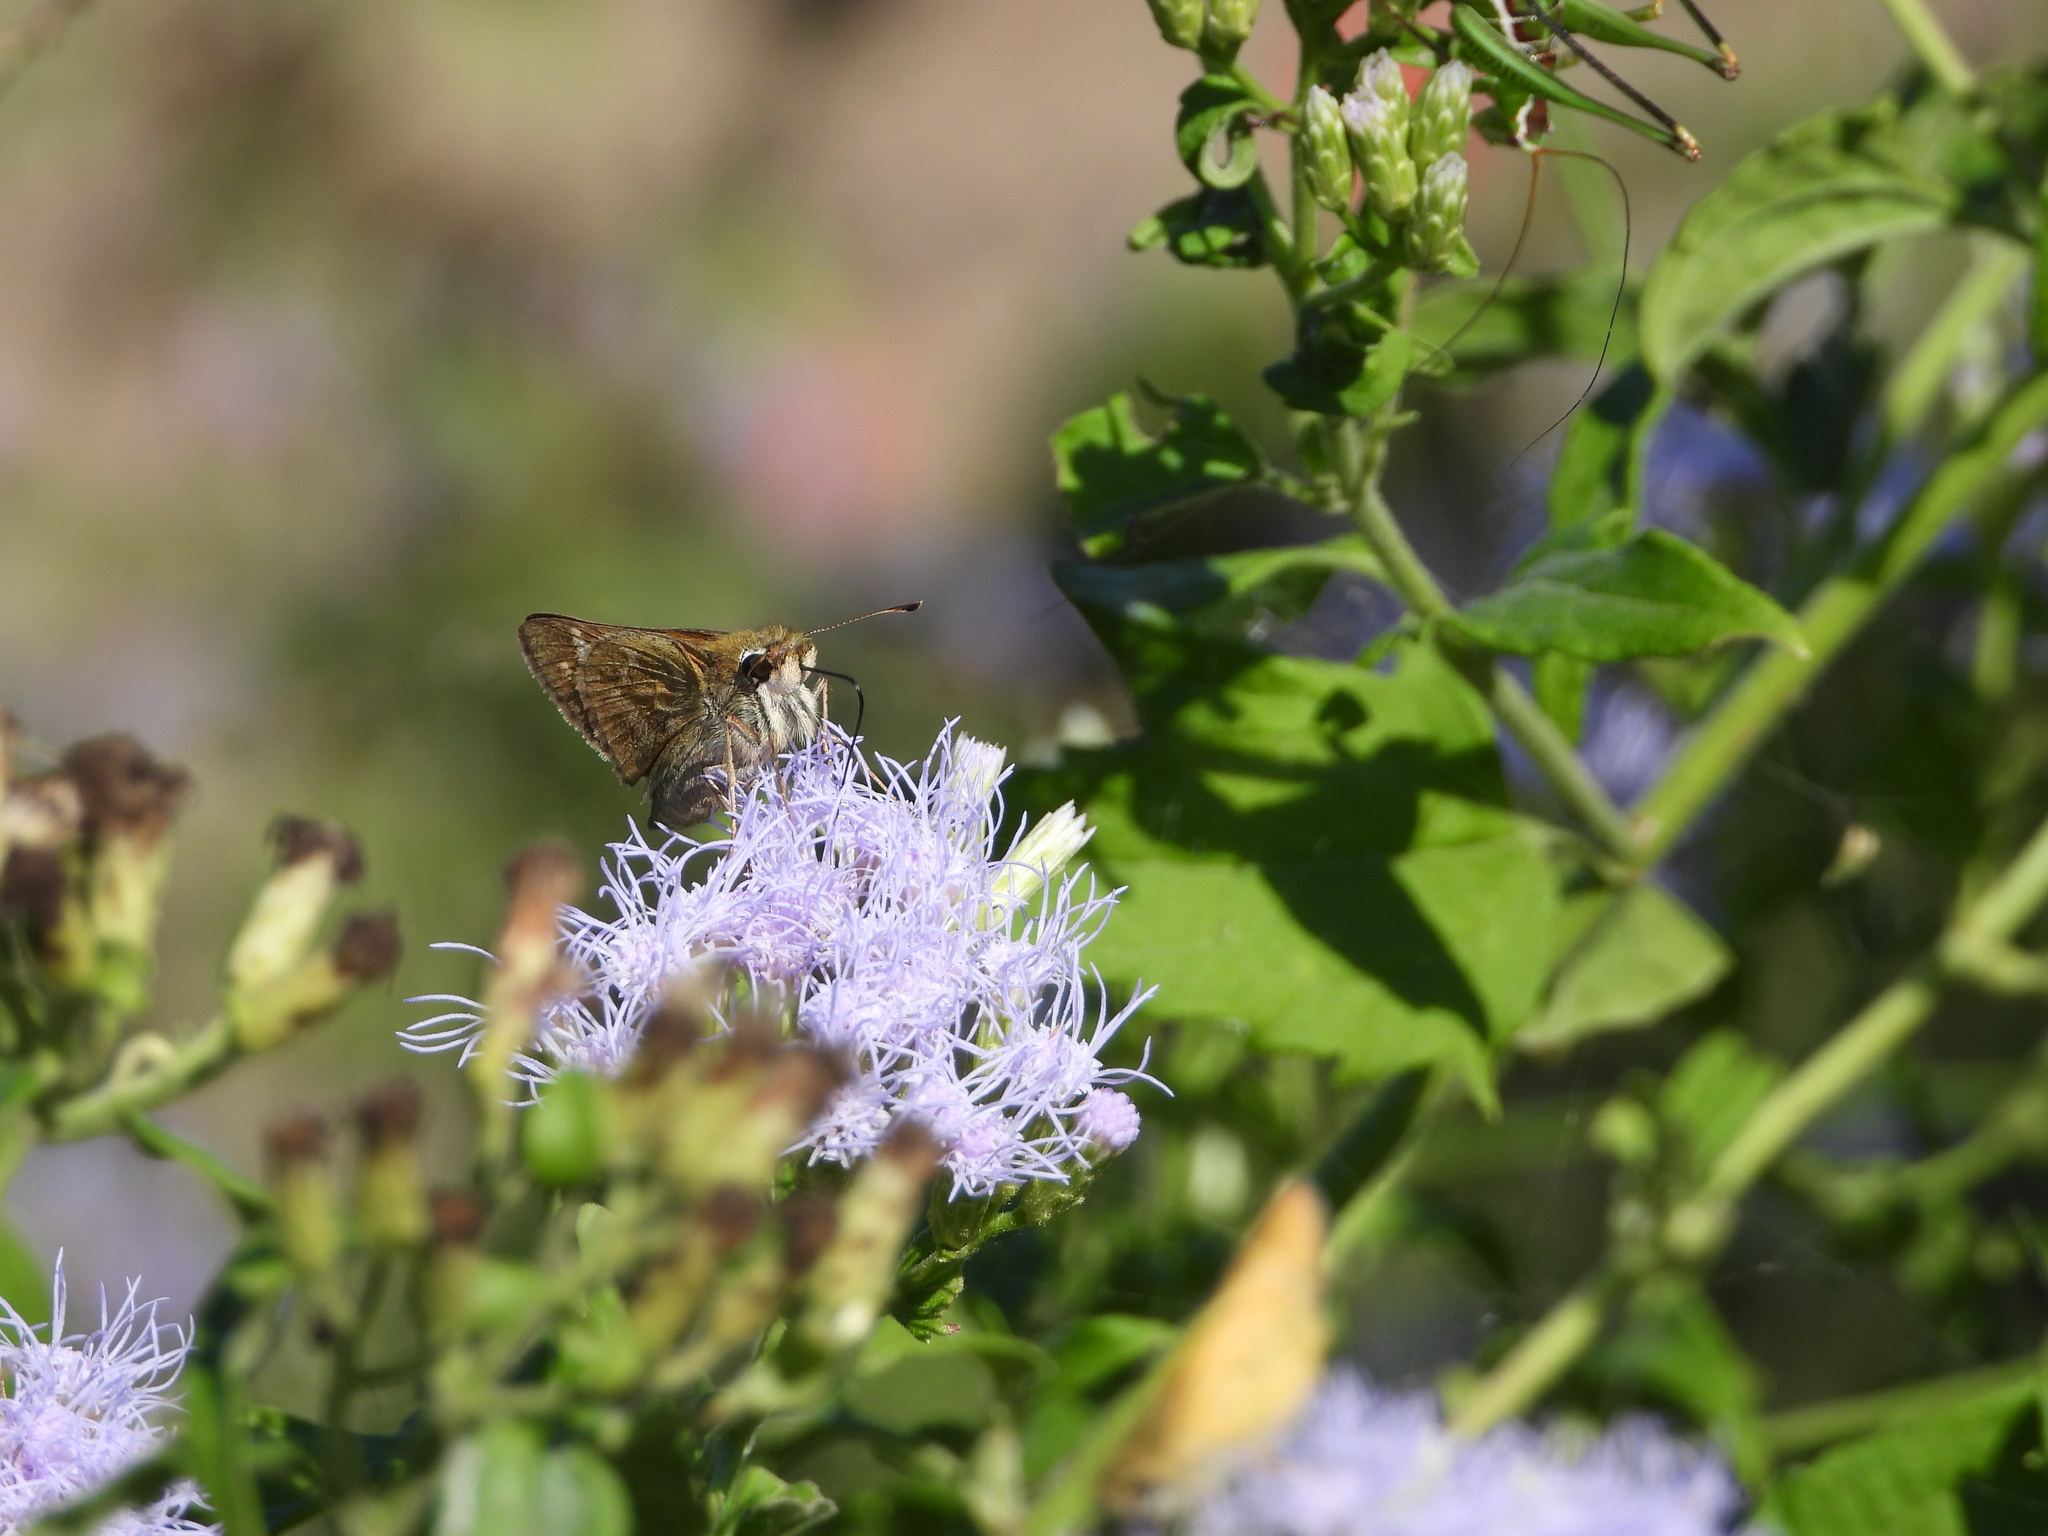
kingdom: Animalia
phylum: Arthropoda
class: Insecta
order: Lepidoptera
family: Hesperiidae
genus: Atalopedes
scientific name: Atalopedes
